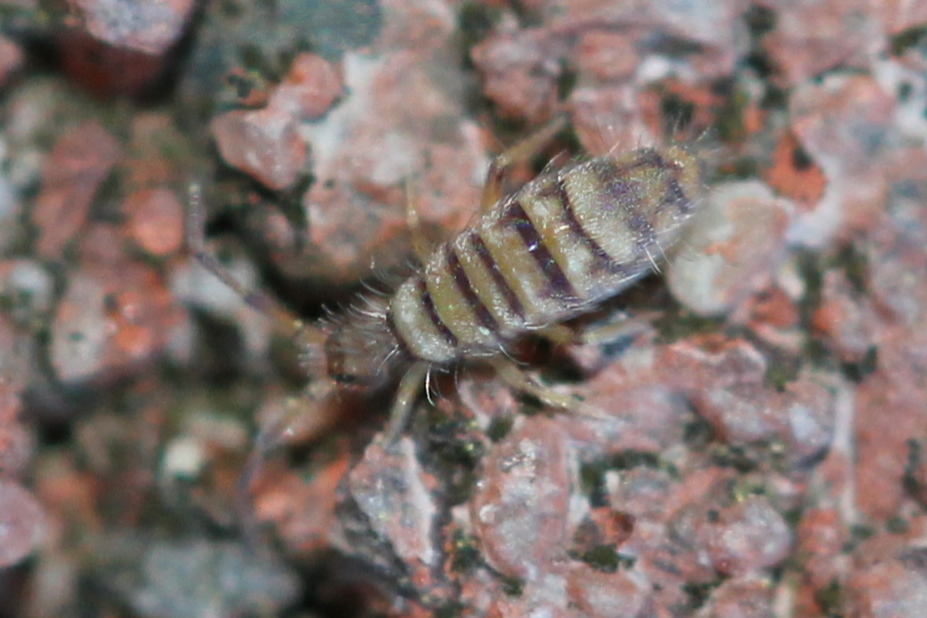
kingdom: Animalia
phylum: Arthropoda
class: Collembola
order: Entomobryomorpha
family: Entomobryidae
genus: Entomobrya
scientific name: Entomobrya atrocincta
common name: Springtail
